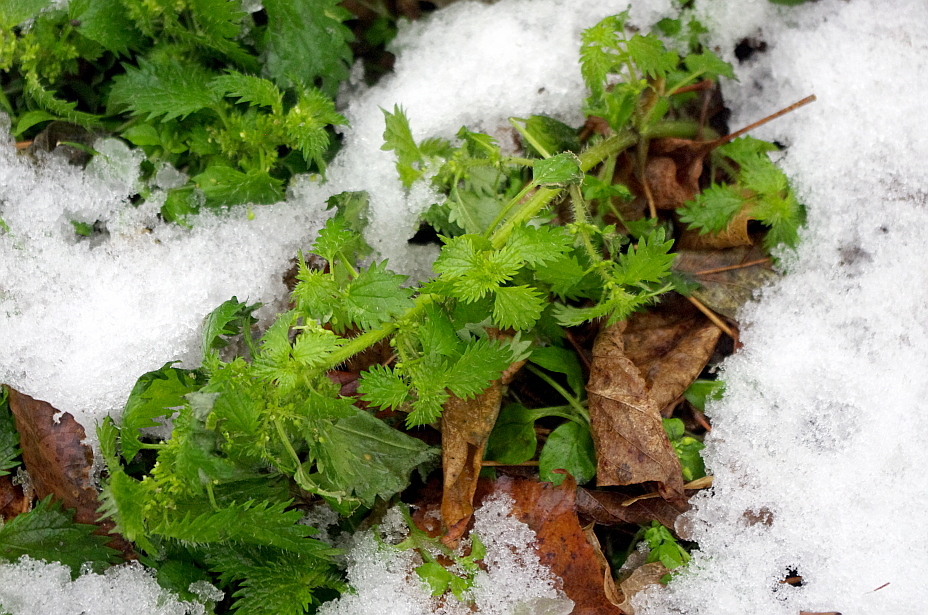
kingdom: Plantae
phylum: Tracheophyta
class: Magnoliopsida
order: Rosales
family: Urticaceae
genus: Urtica
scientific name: Urtica urens
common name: Dwarf nettle
